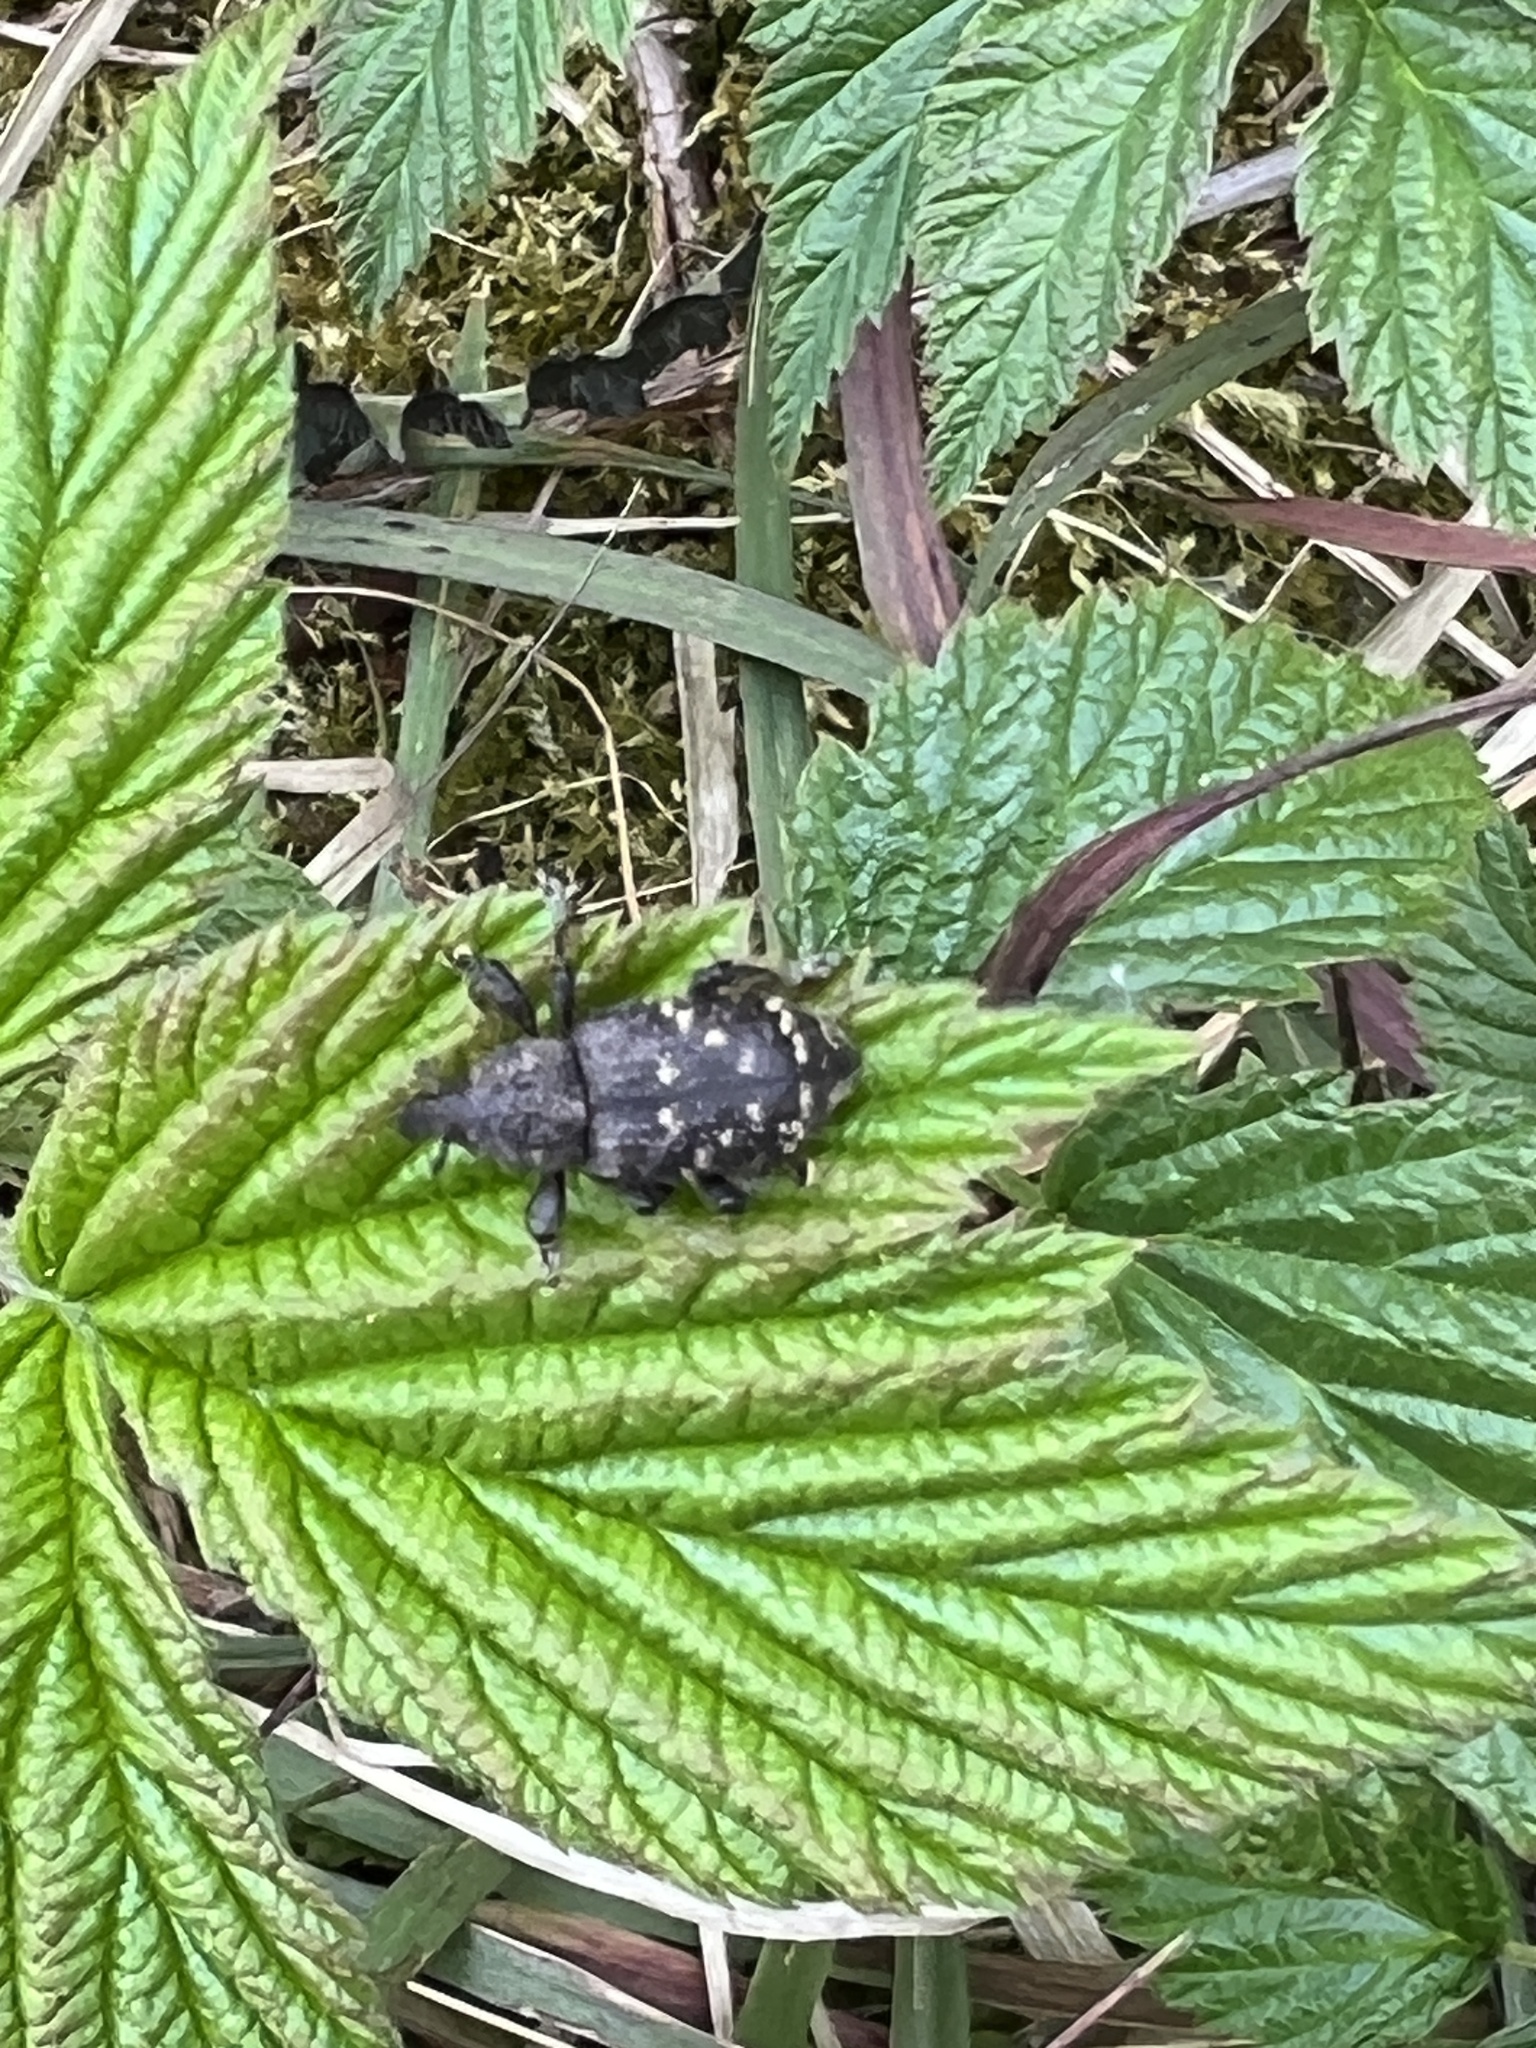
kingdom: Animalia
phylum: Arthropoda
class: Insecta
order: Coleoptera
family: Curculionidae
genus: Hylobius
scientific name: Hylobius abietis
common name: Large pine weevil
